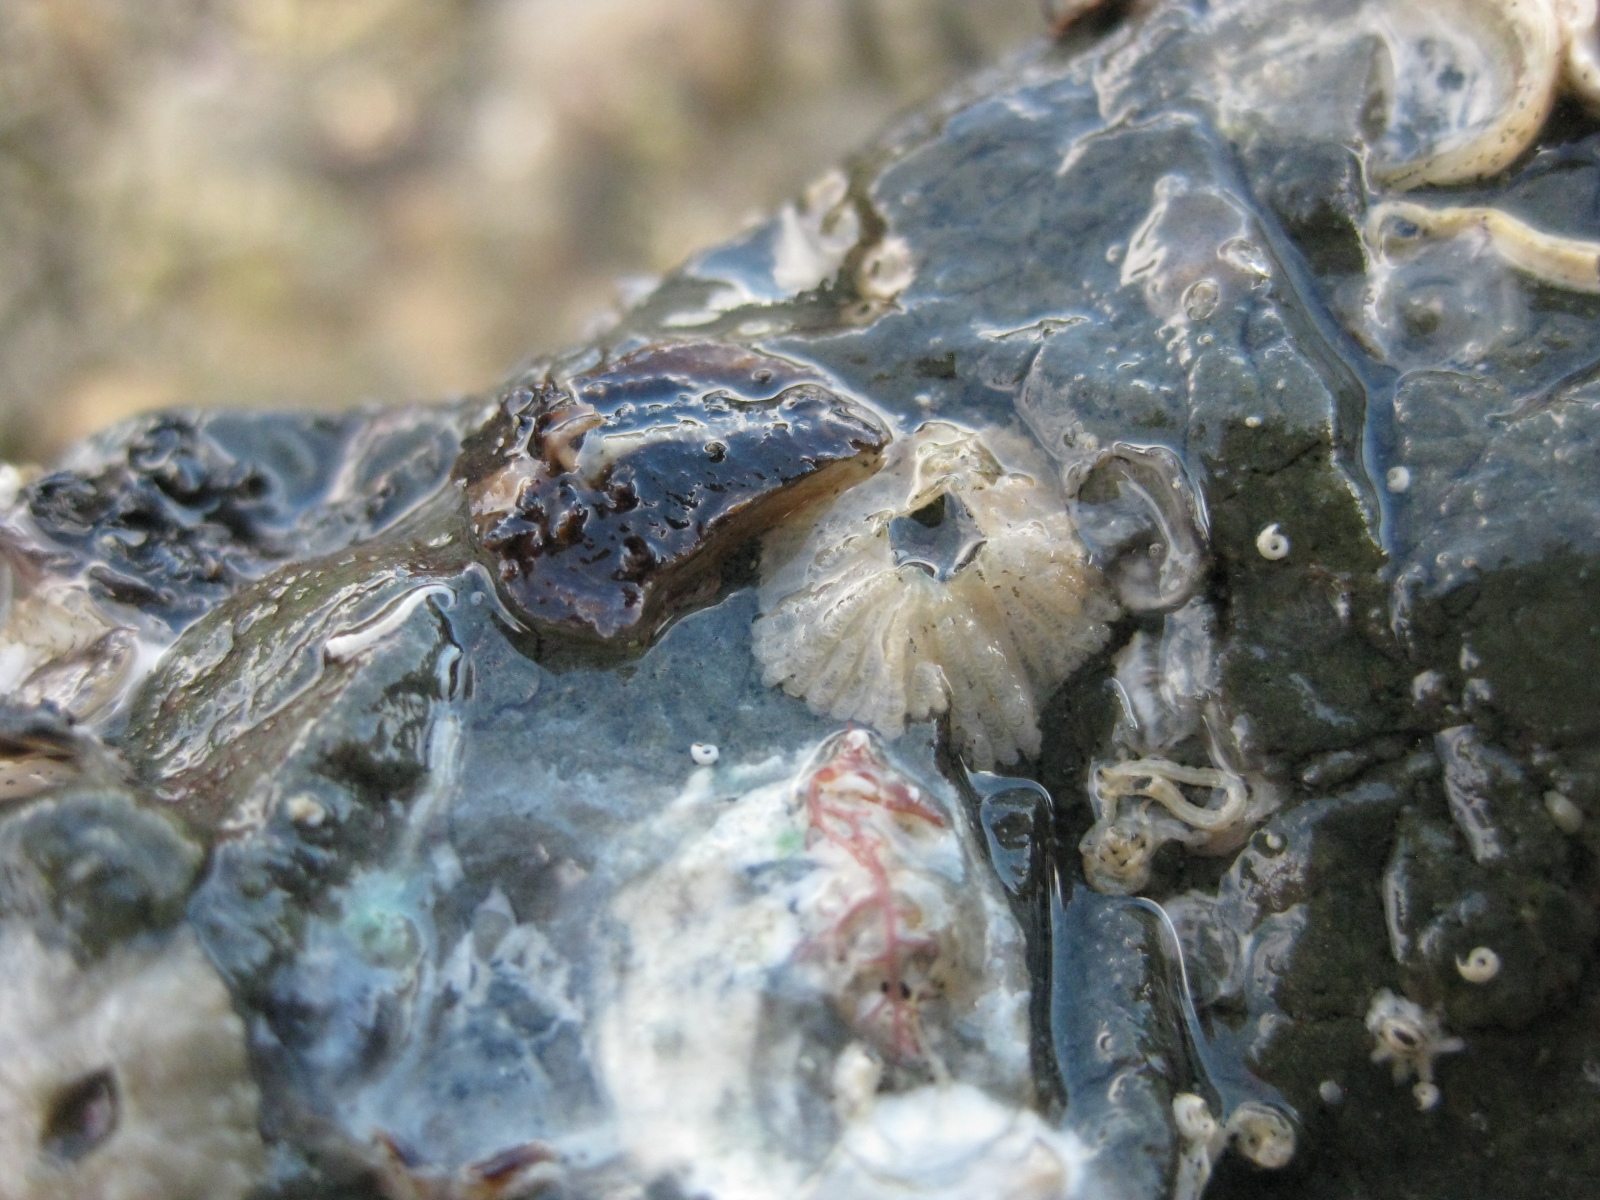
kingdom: Animalia
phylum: Arthropoda
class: Maxillopoda
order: Sessilia
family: Tetraclitidae
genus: Tetraclitella
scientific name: Tetraclitella depressa
